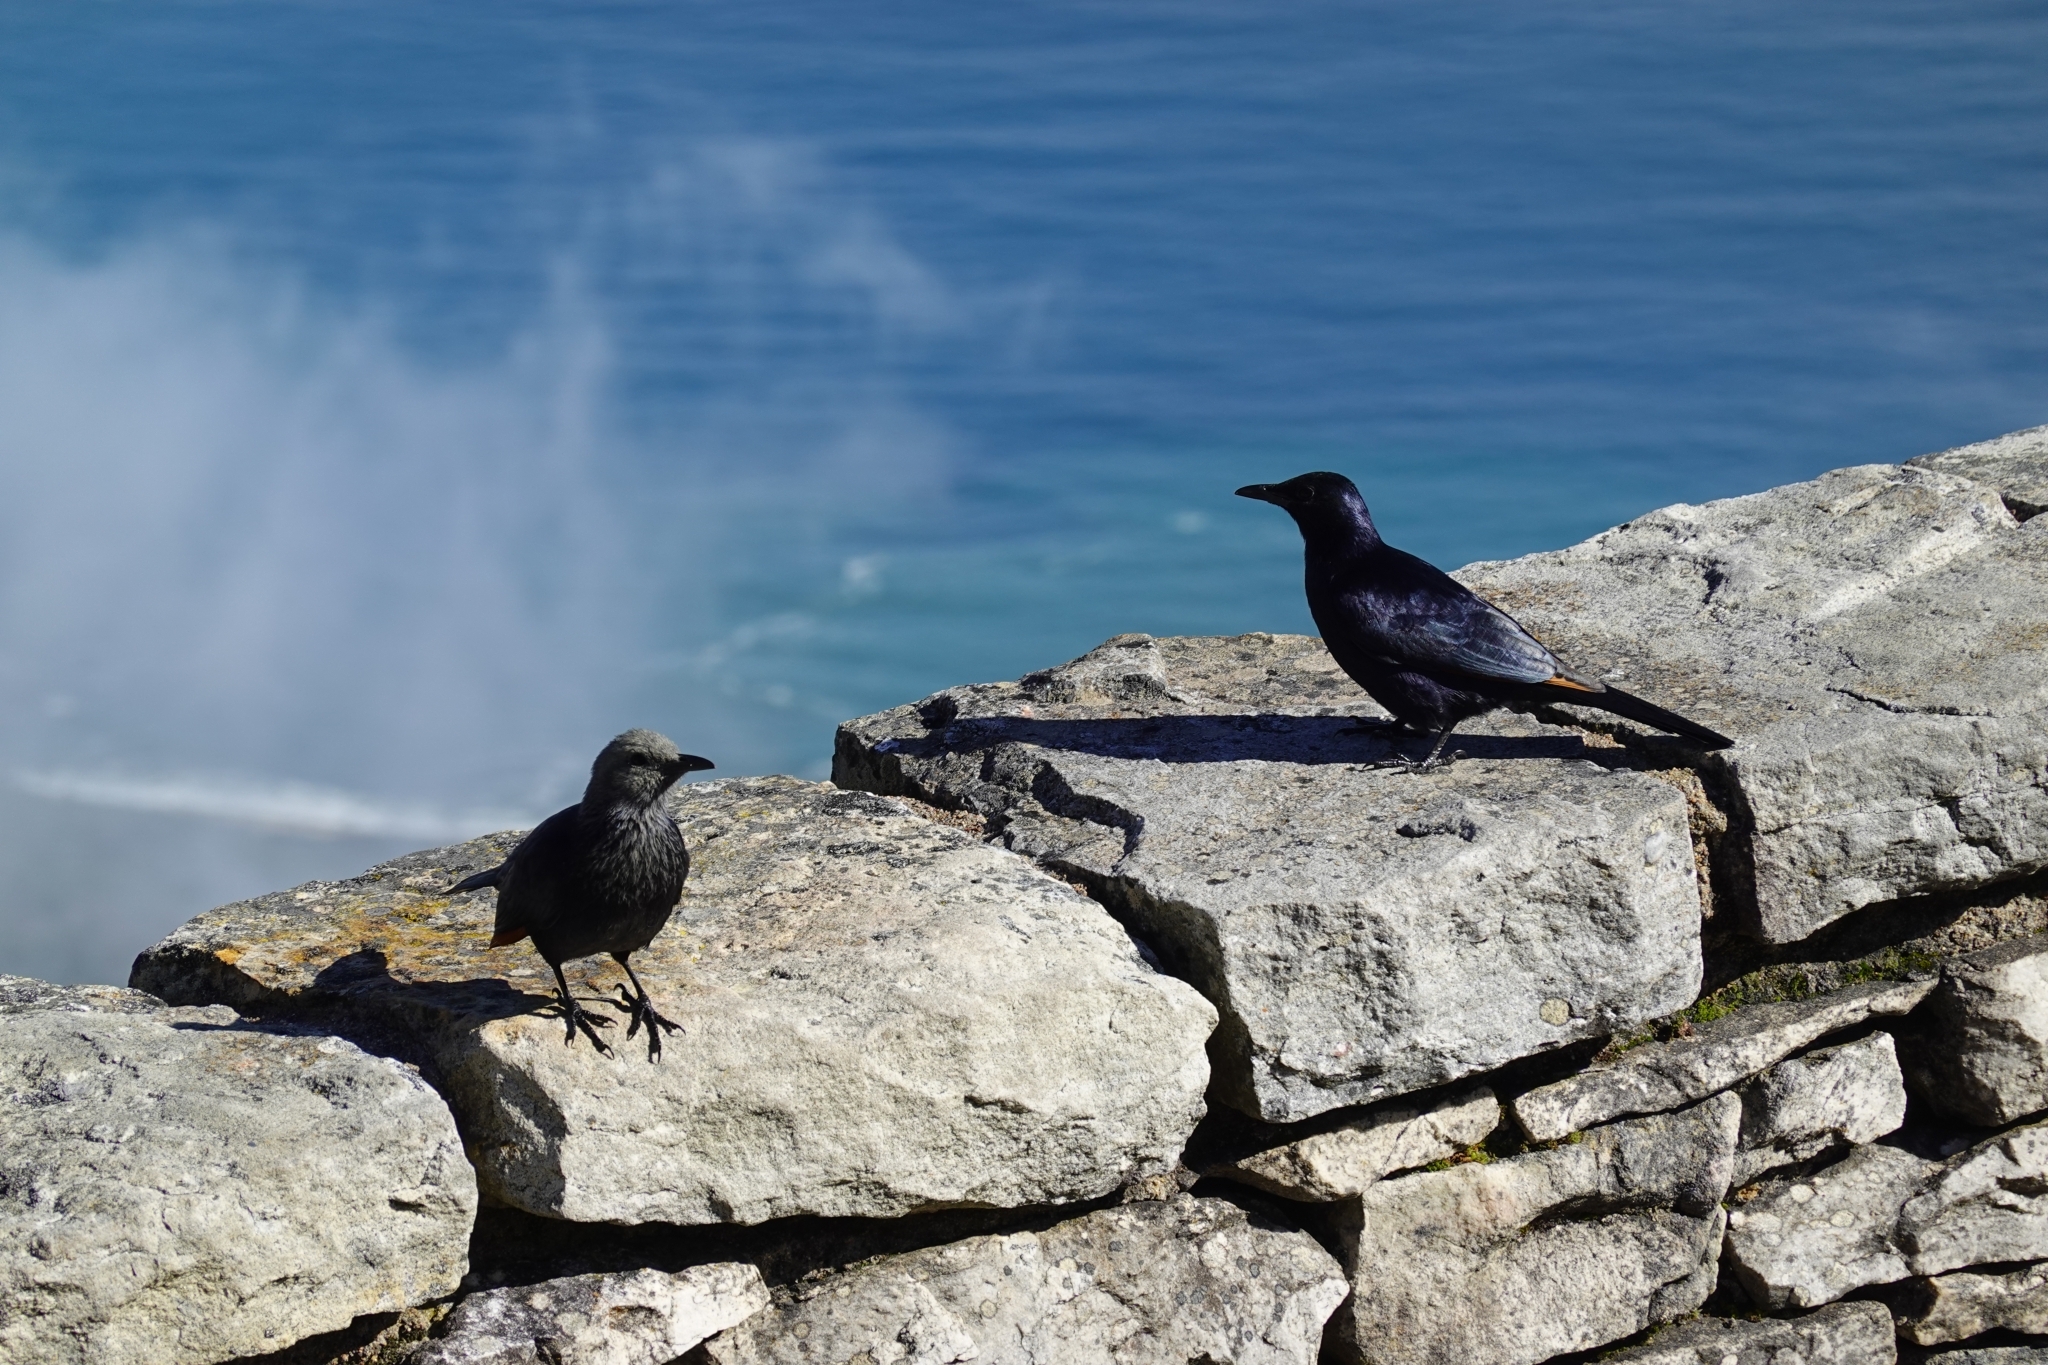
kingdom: Animalia
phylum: Chordata
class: Aves
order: Passeriformes
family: Sturnidae
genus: Onychognathus
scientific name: Onychognathus morio
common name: Red-winged starling
